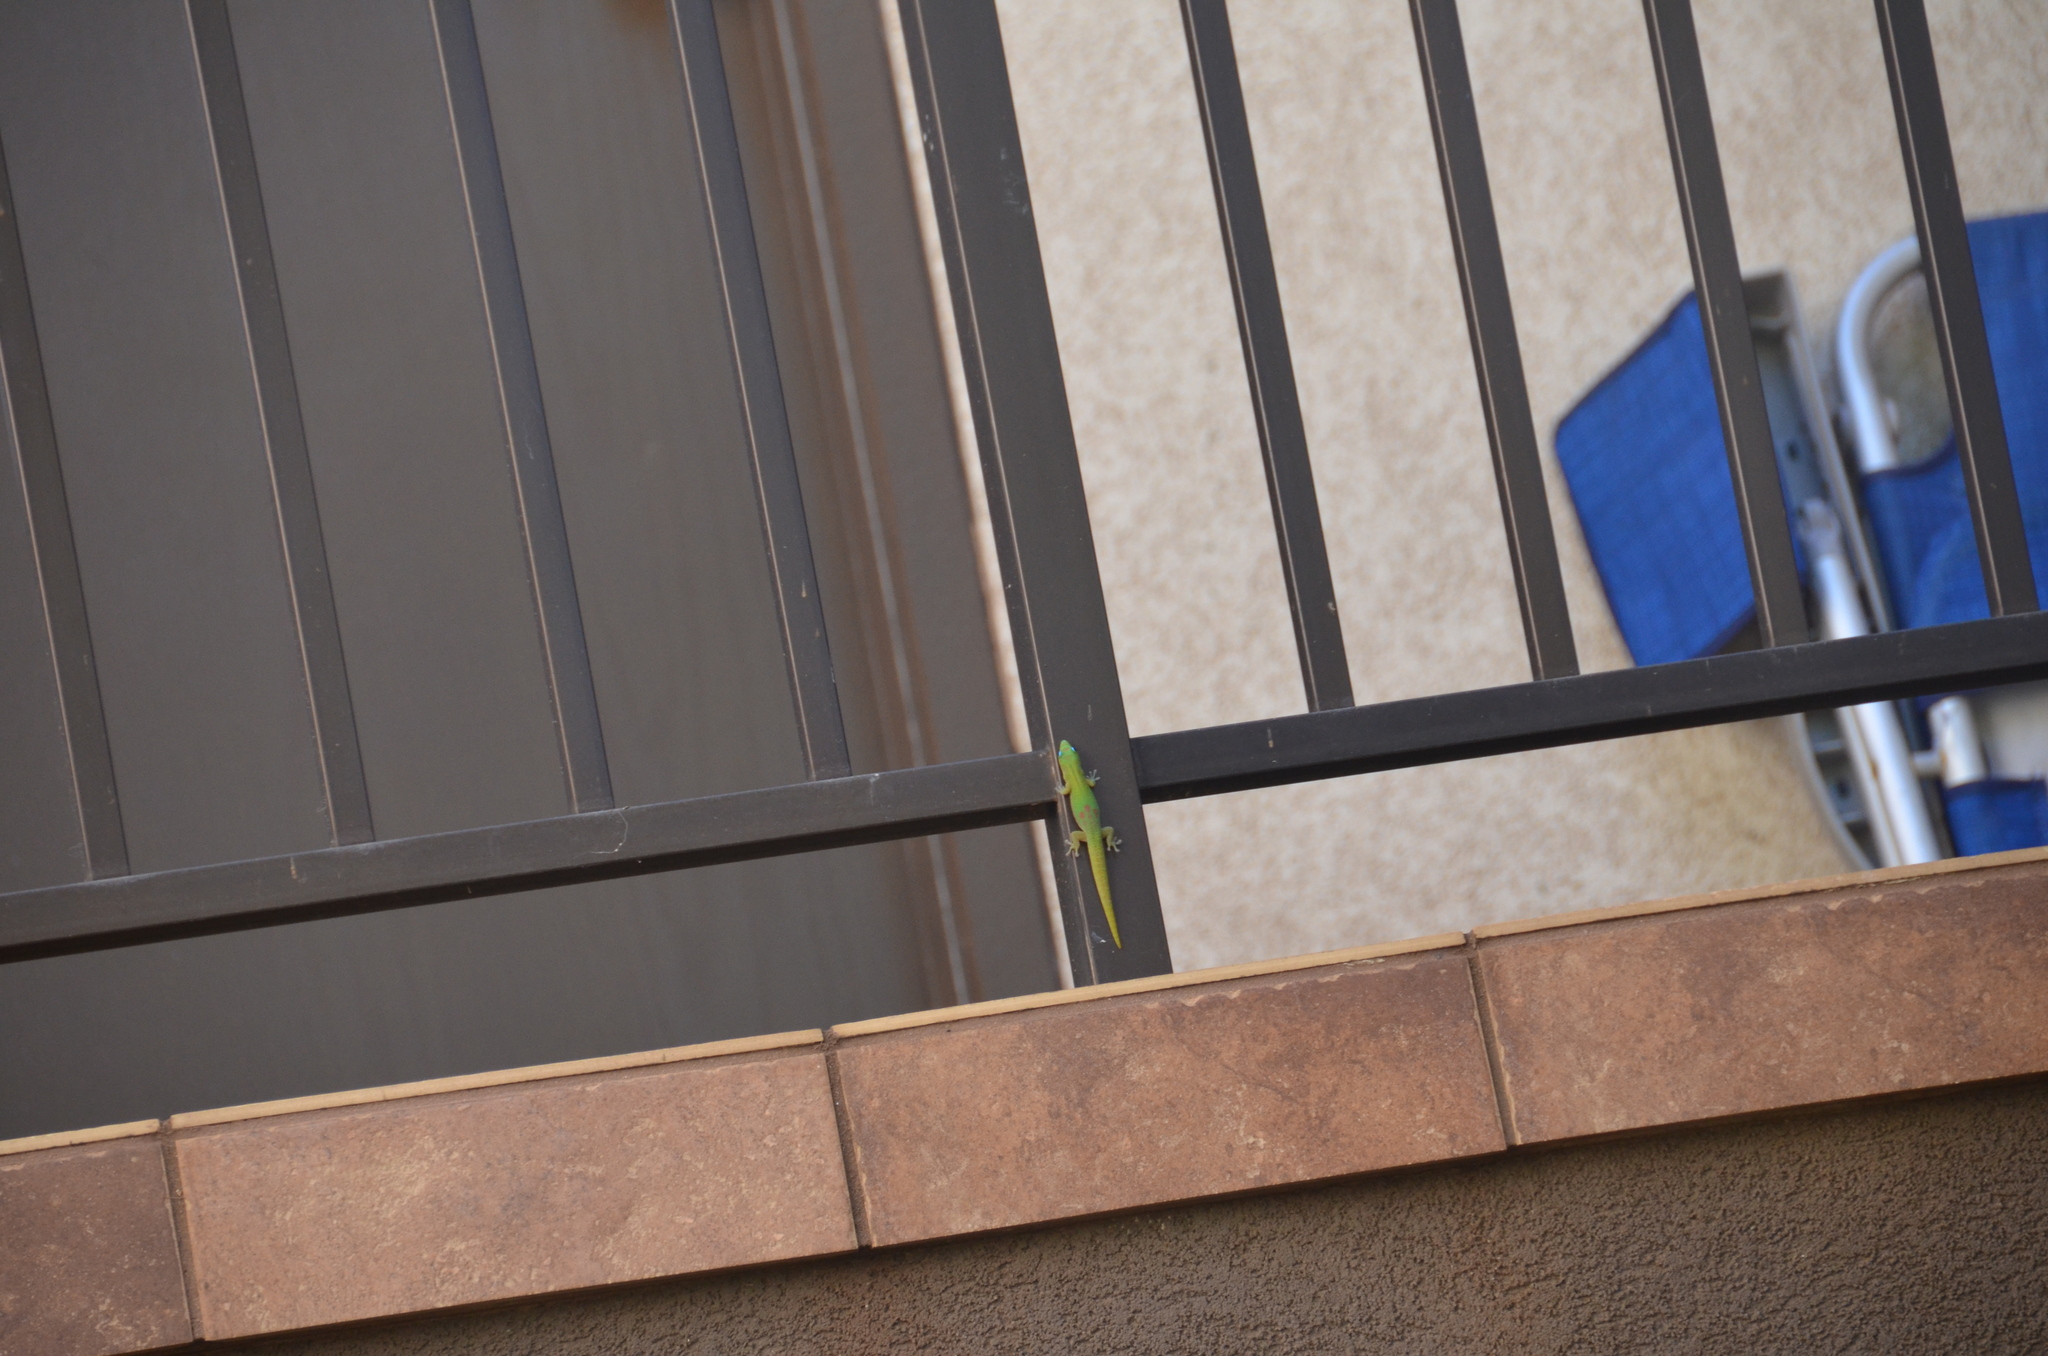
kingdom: Animalia
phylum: Chordata
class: Squamata
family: Gekkonidae
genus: Phelsuma
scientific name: Phelsuma laticauda
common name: Gold dust day gecko
